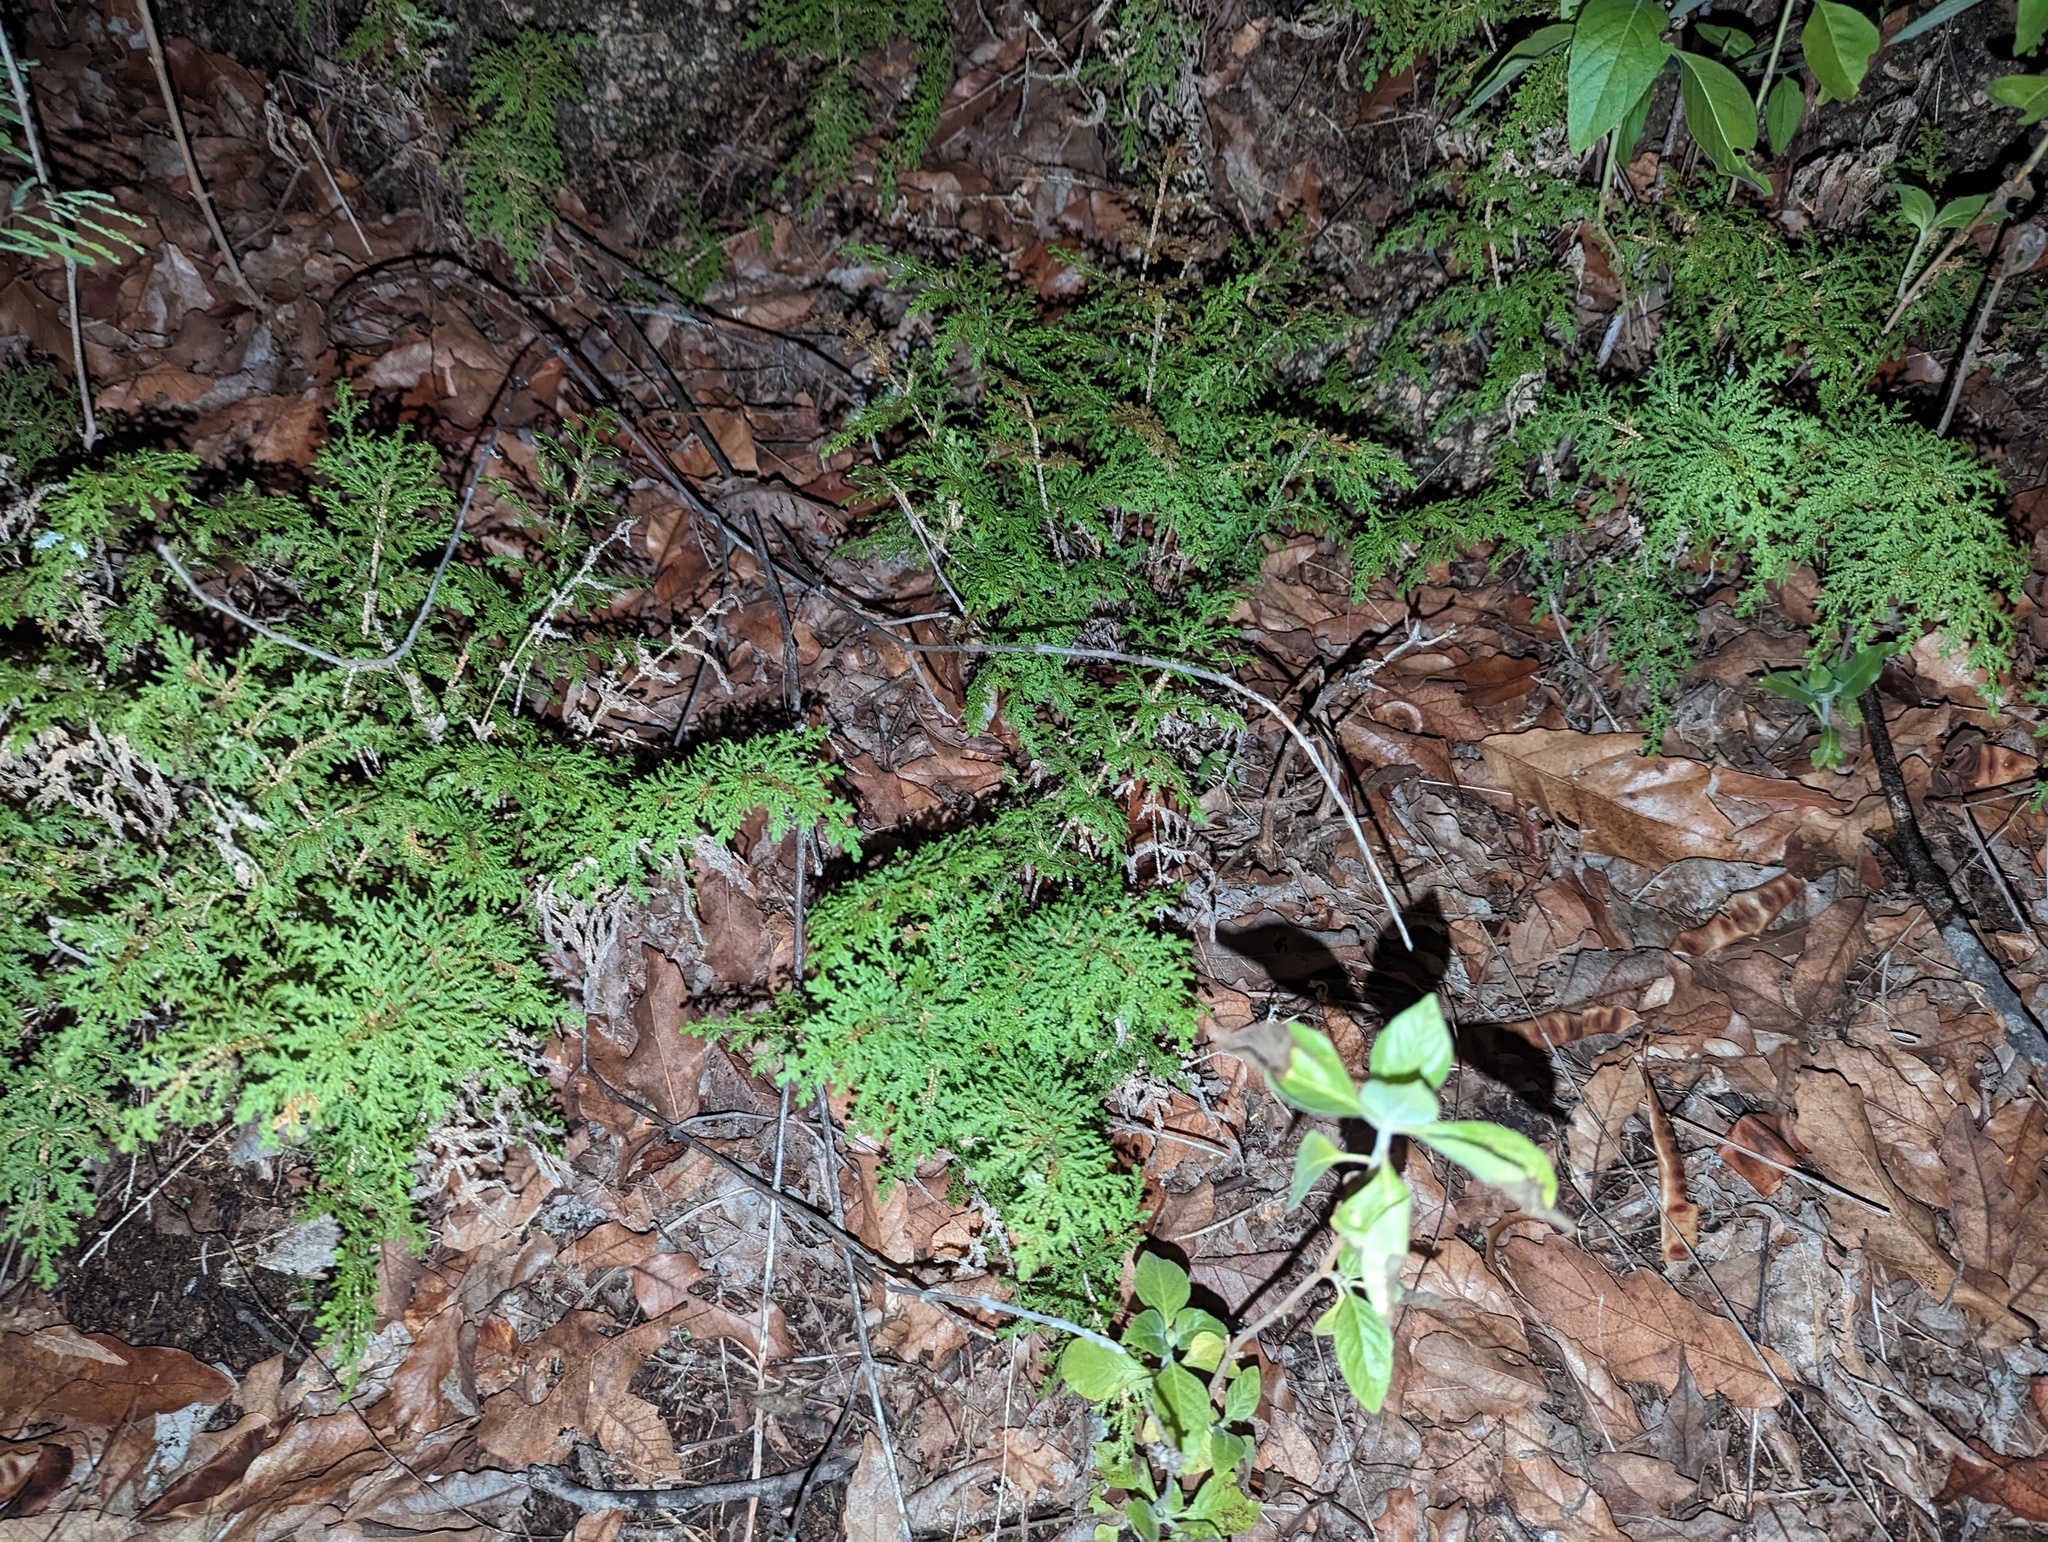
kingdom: Plantae
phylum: Tracheophyta
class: Lycopodiopsida
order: Selaginellales
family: Selaginellaceae
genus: Selaginella
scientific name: Selaginella pallescens
